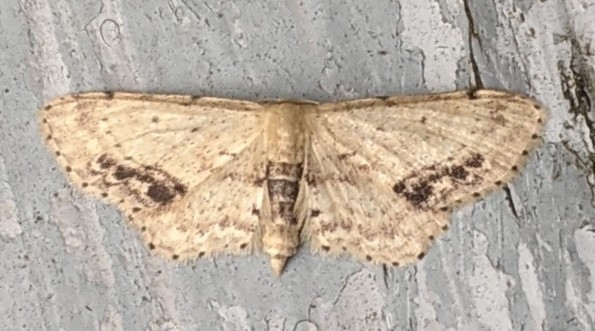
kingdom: Animalia
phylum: Arthropoda
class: Insecta
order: Lepidoptera
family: Geometridae
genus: Idaea
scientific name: Idaea dimidiata
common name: Single-dotted wave
